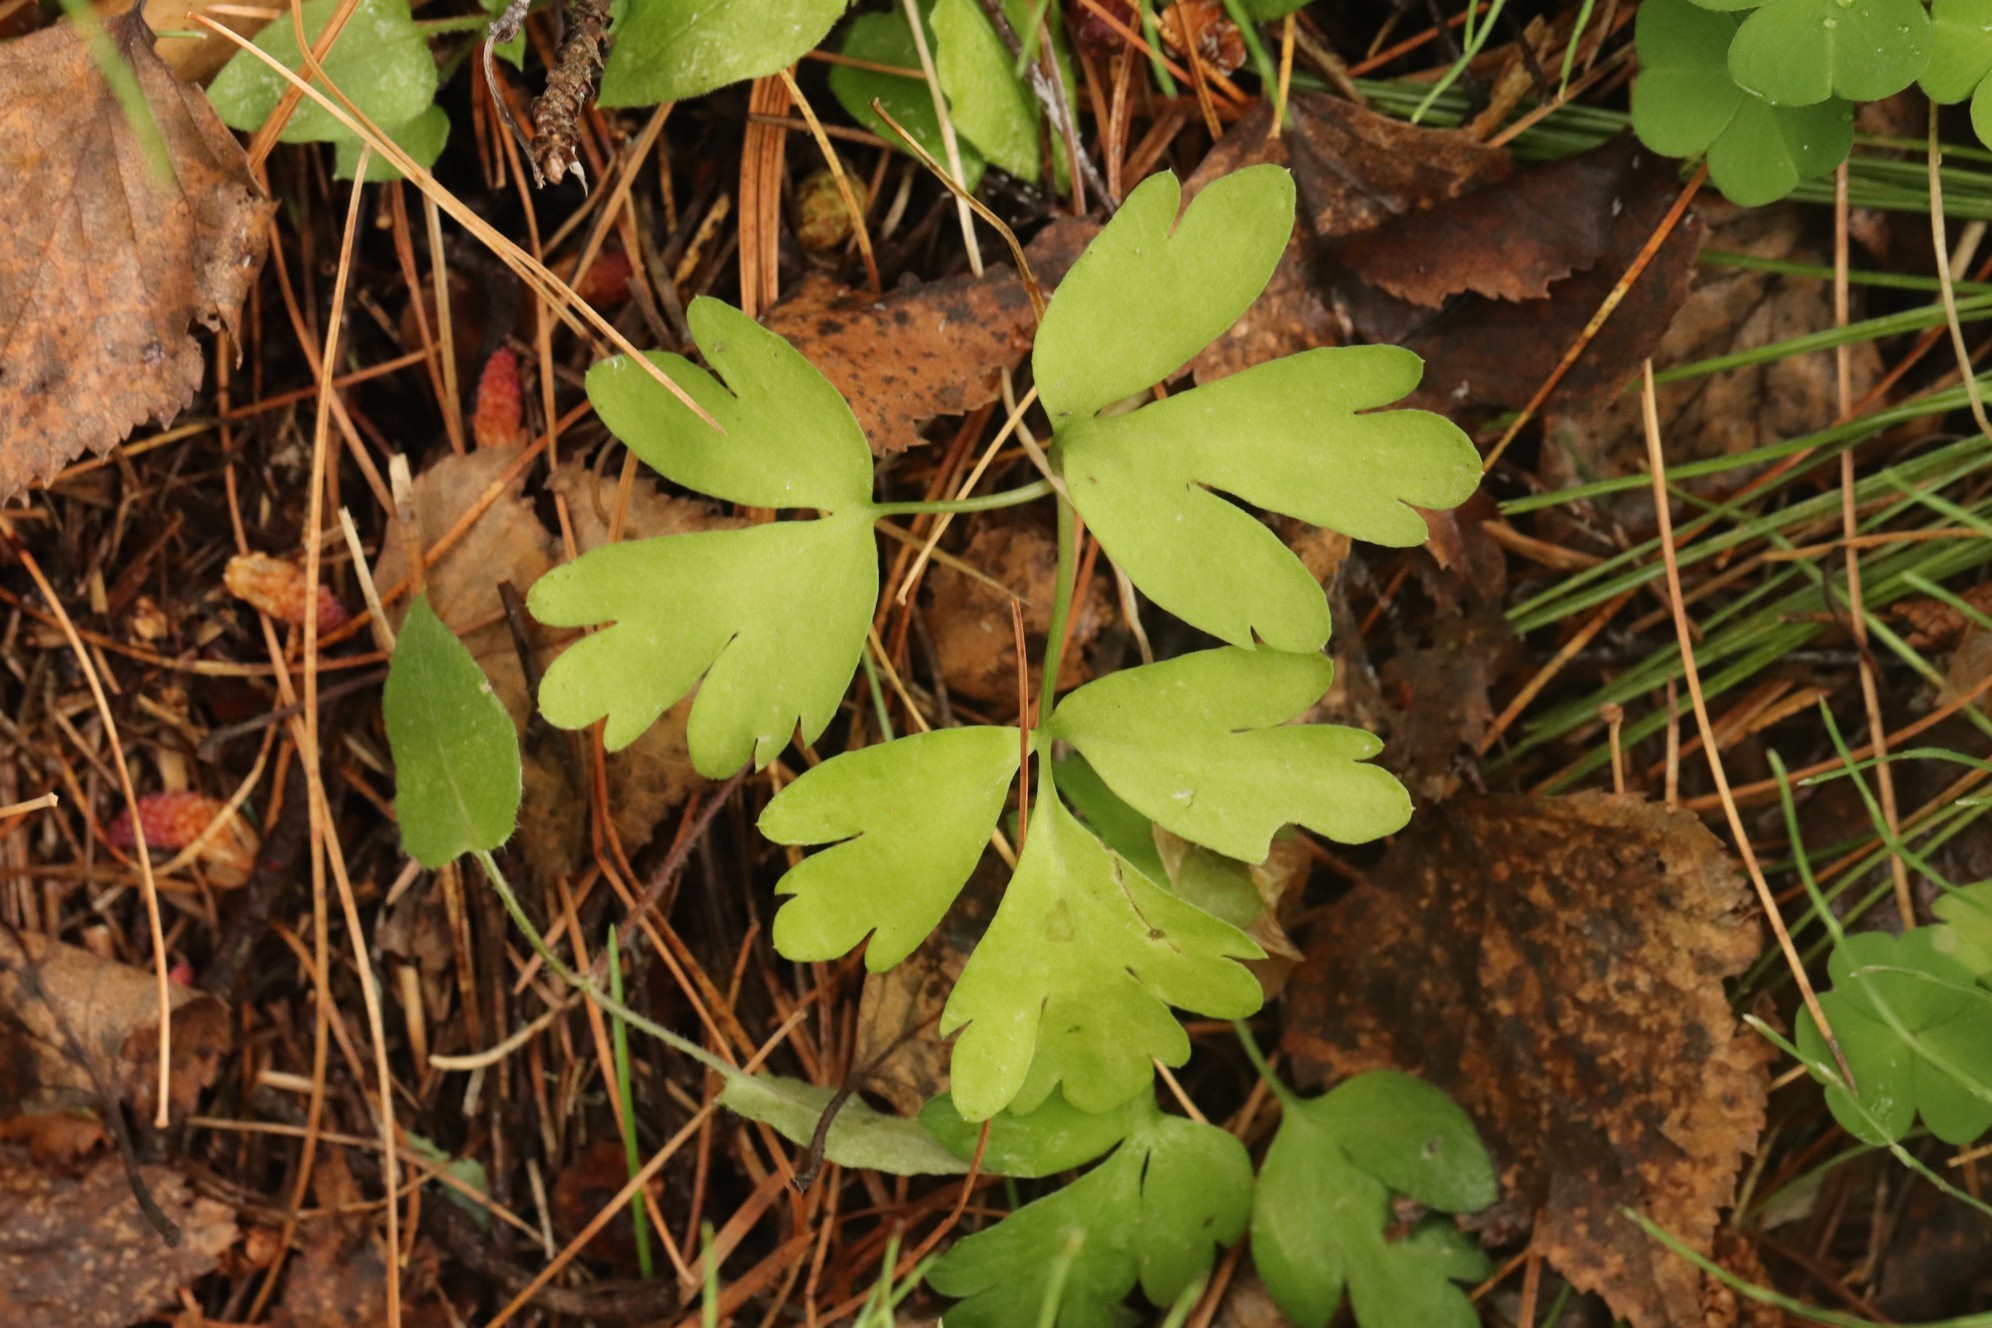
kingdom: Plantae
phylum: Tracheophyta
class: Magnoliopsida
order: Dipsacales
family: Viburnaceae
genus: Adoxa
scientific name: Adoxa moschatellina
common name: Moschatel
